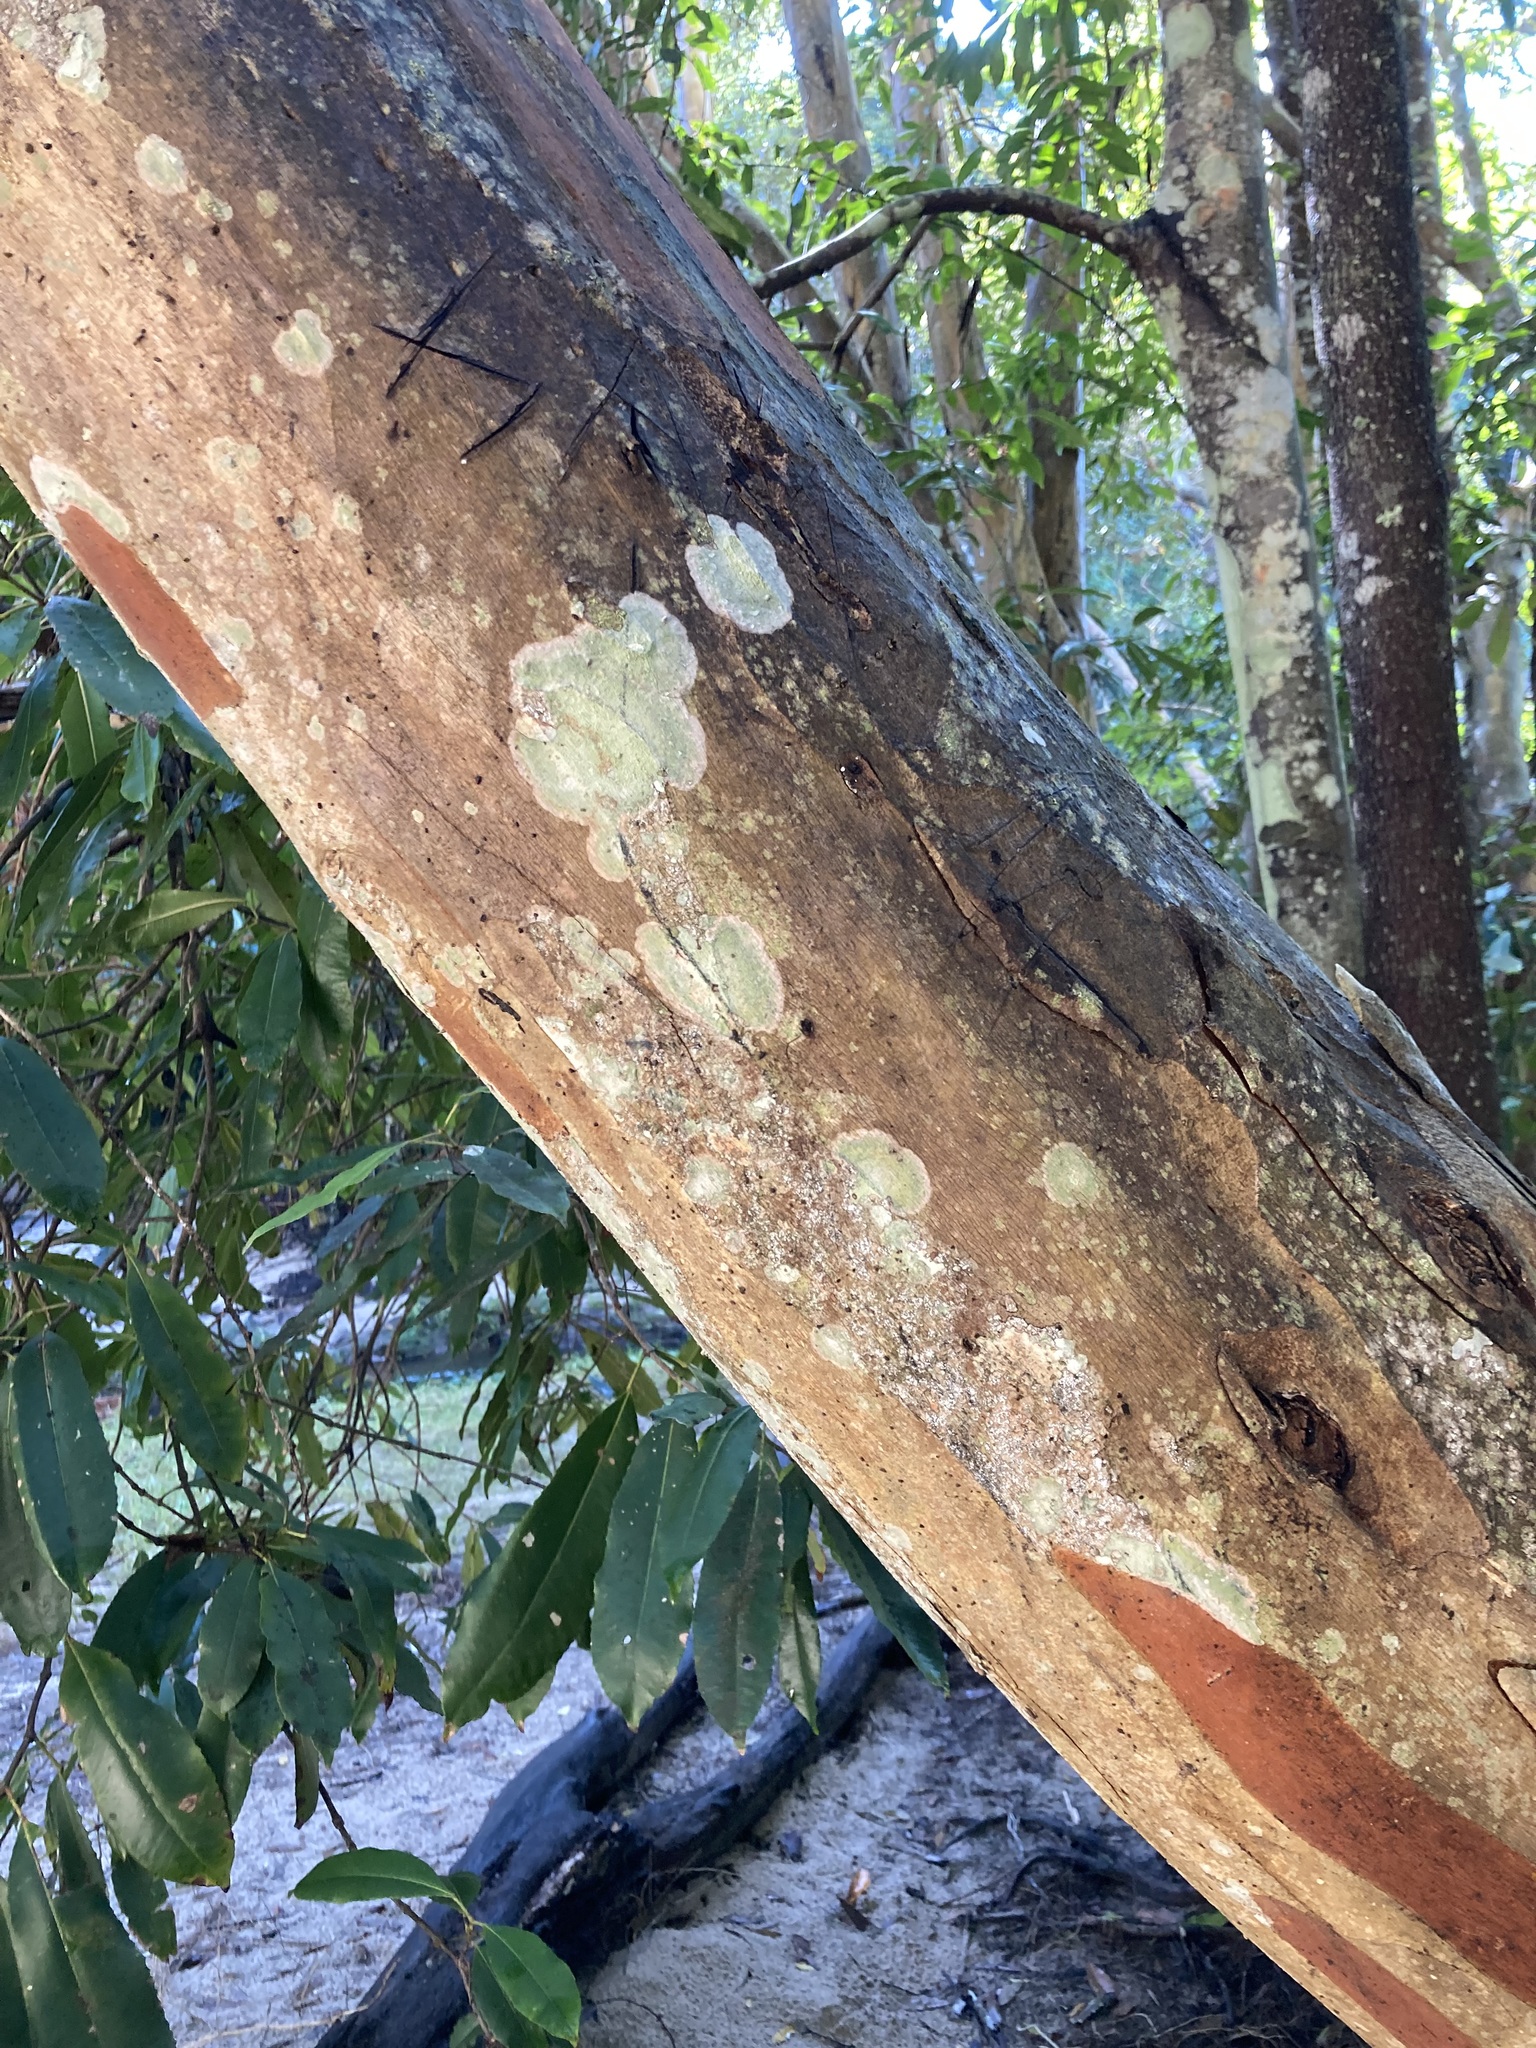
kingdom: Plantae
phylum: Tracheophyta
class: Magnoliopsida
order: Oxalidales
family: Cunoniaceae
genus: Ceratopetalum
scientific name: Ceratopetalum apetalum
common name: Scented satinwood
